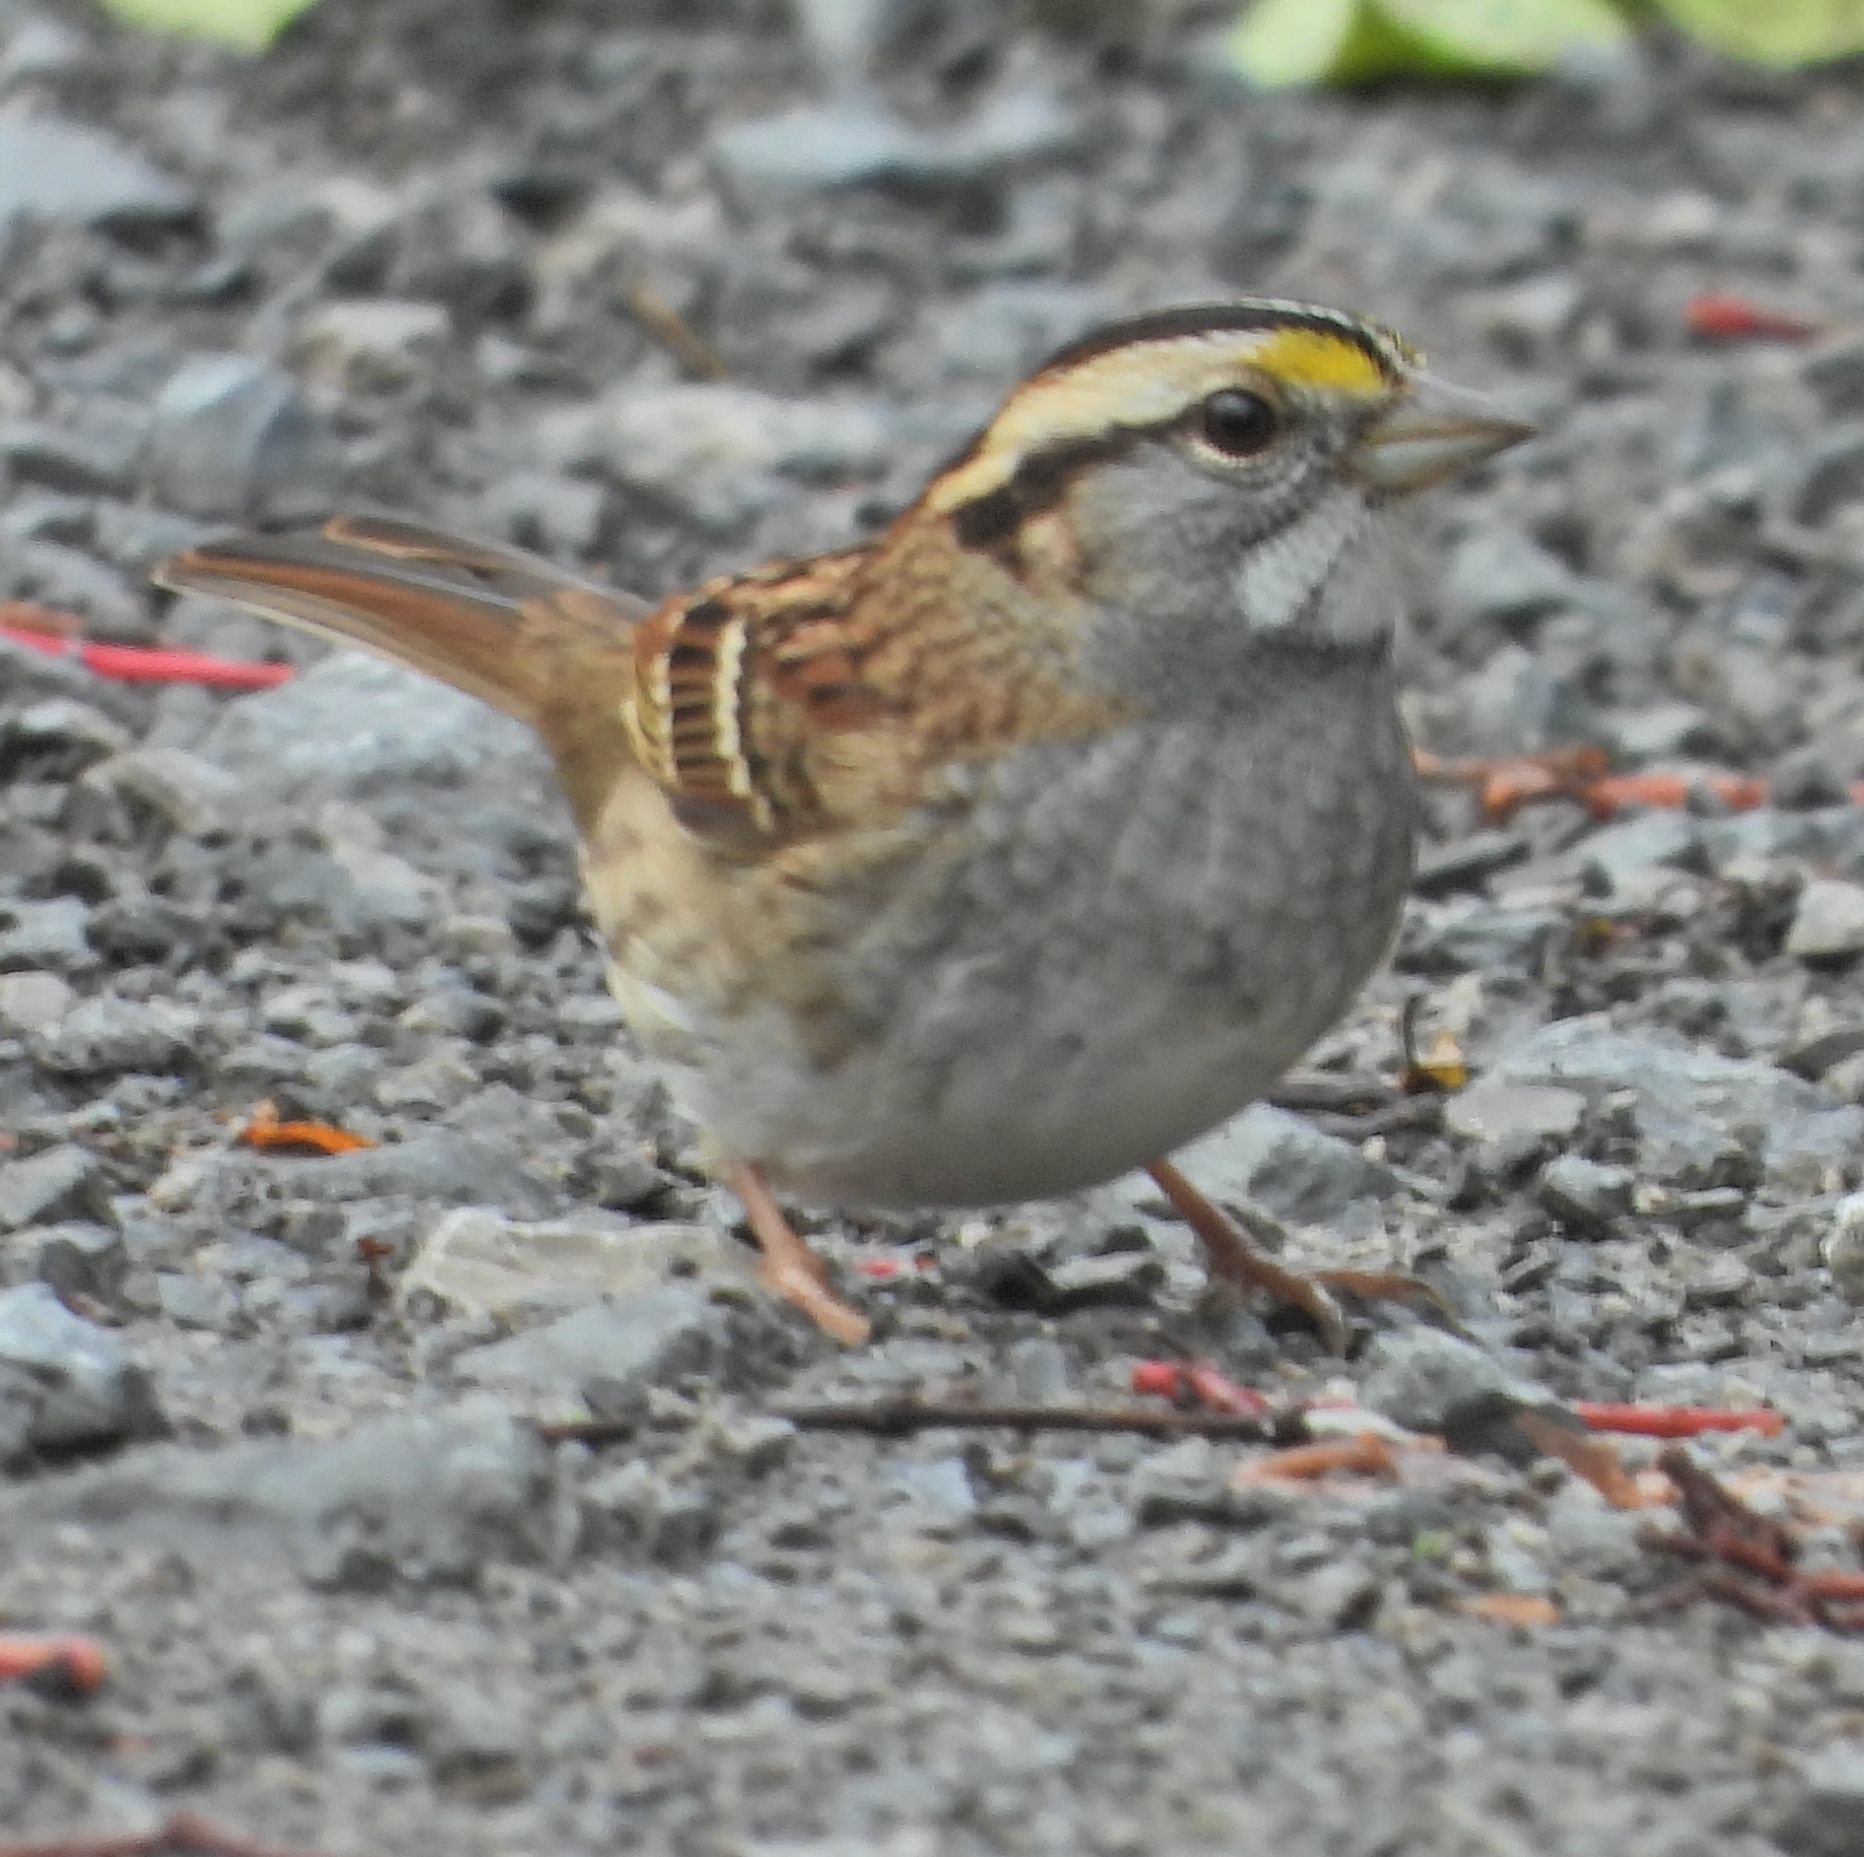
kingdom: Animalia
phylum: Chordata
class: Aves
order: Passeriformes
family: Passerellidae
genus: Zonotrichia
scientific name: Zonotrichia albicollis
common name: White-throated sparrow
